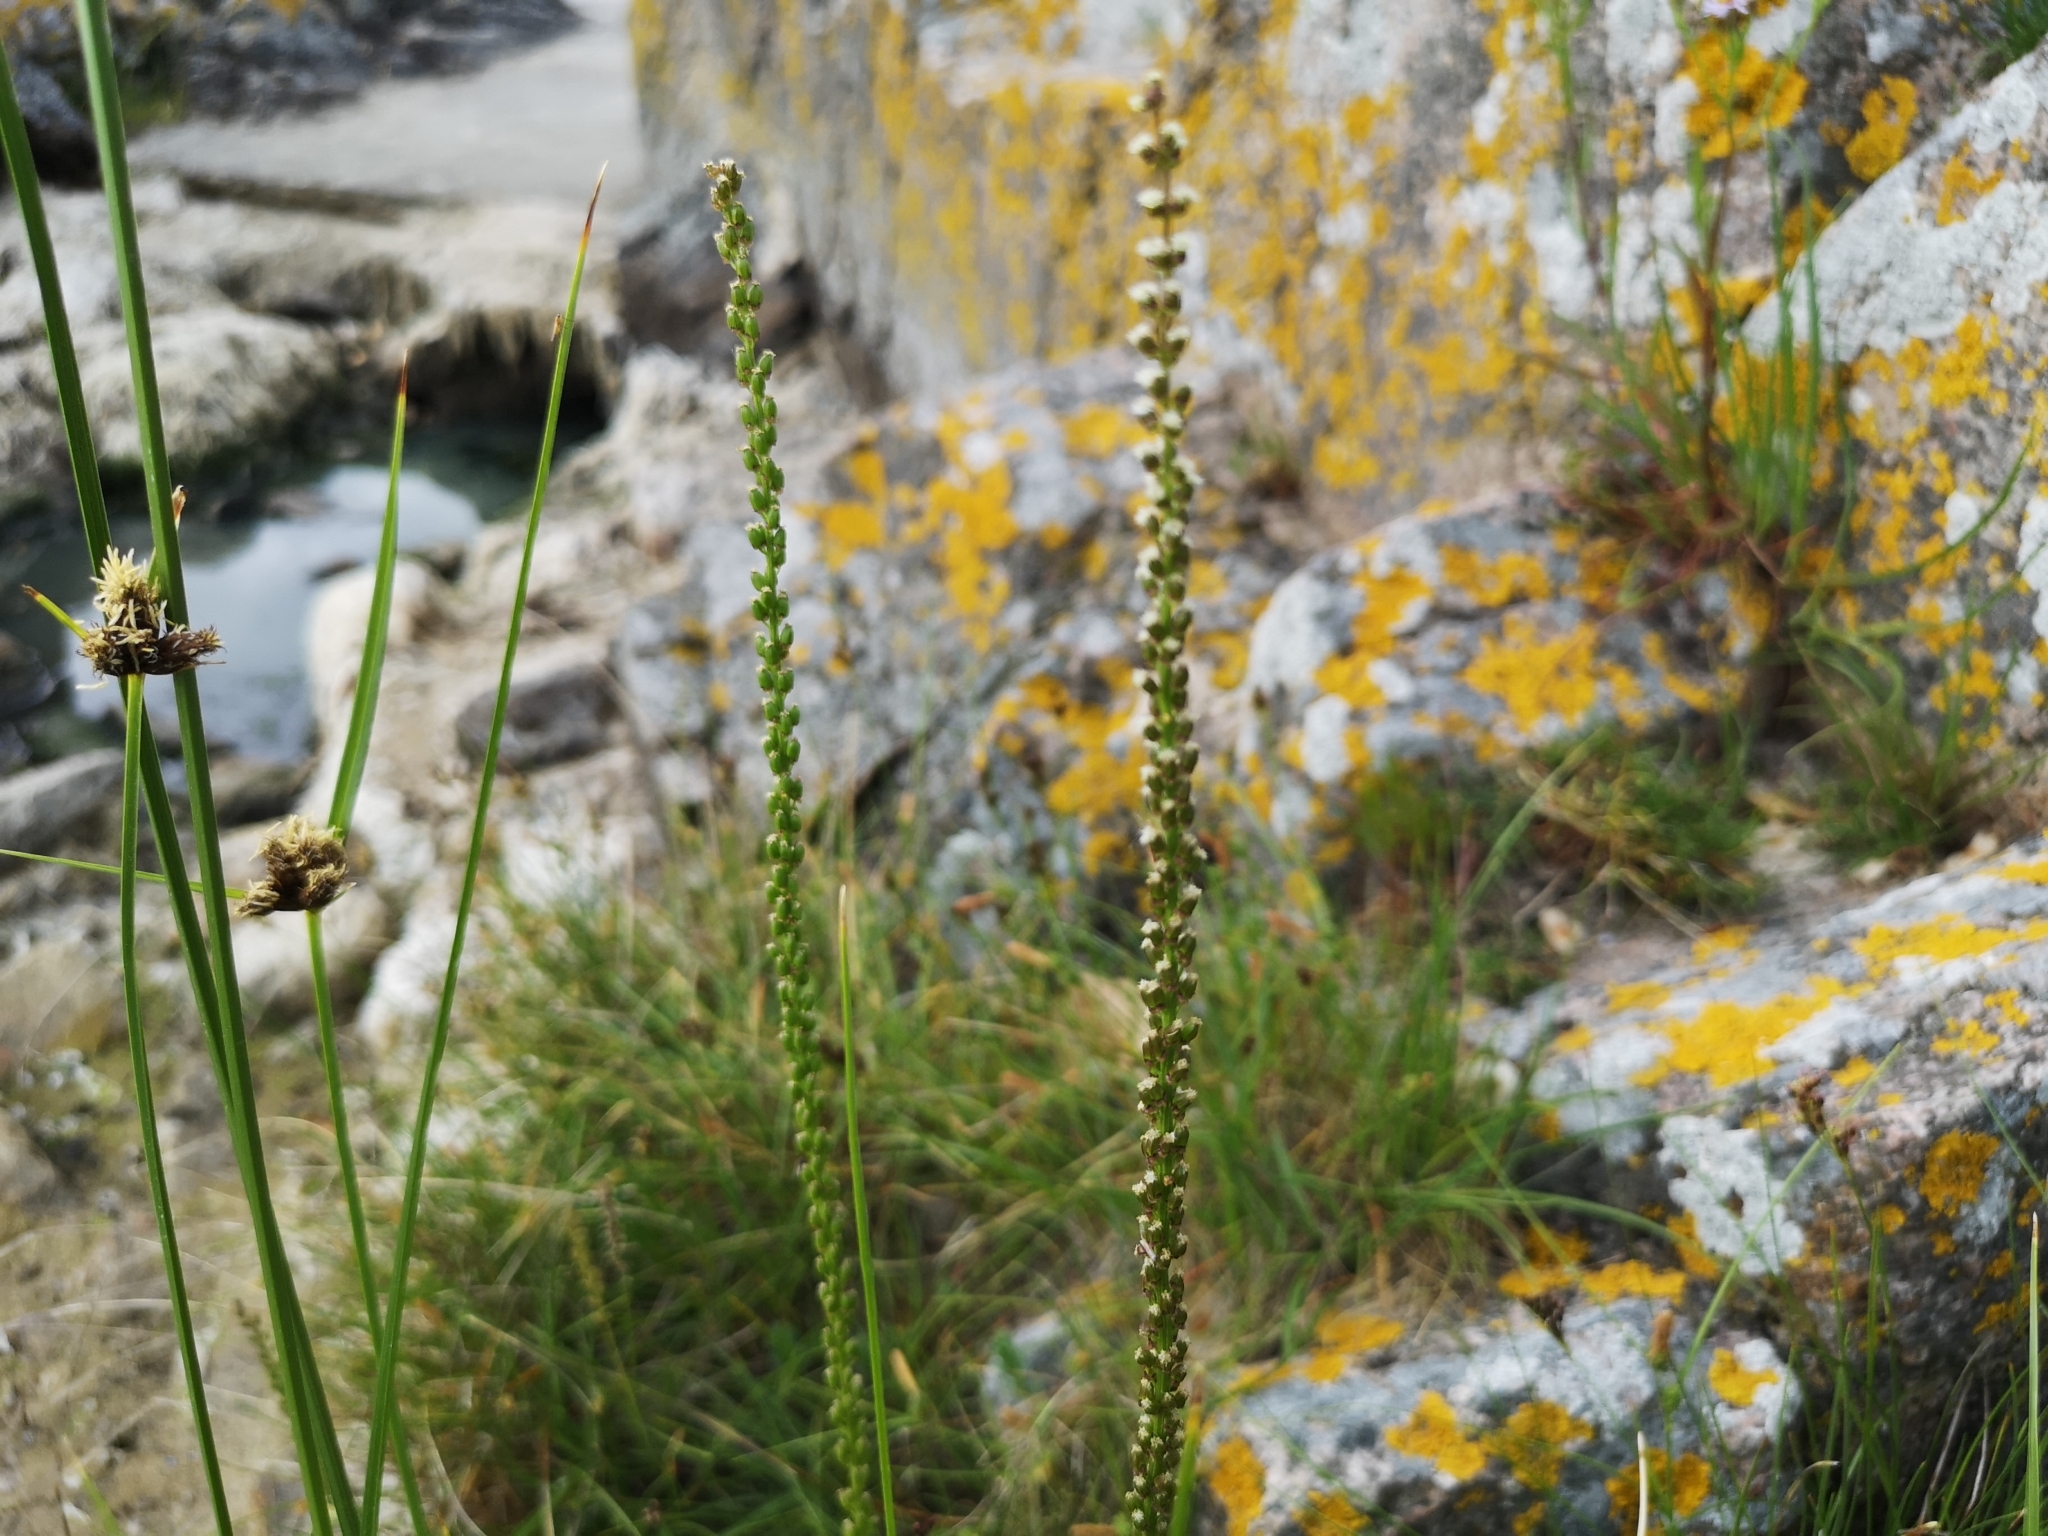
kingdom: Plantae
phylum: Tracheophyta
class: Liliopsida
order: Alismatales
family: Juncaginaceae
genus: Triglochin
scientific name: Triglochin maritima
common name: Sea arrowgrass
